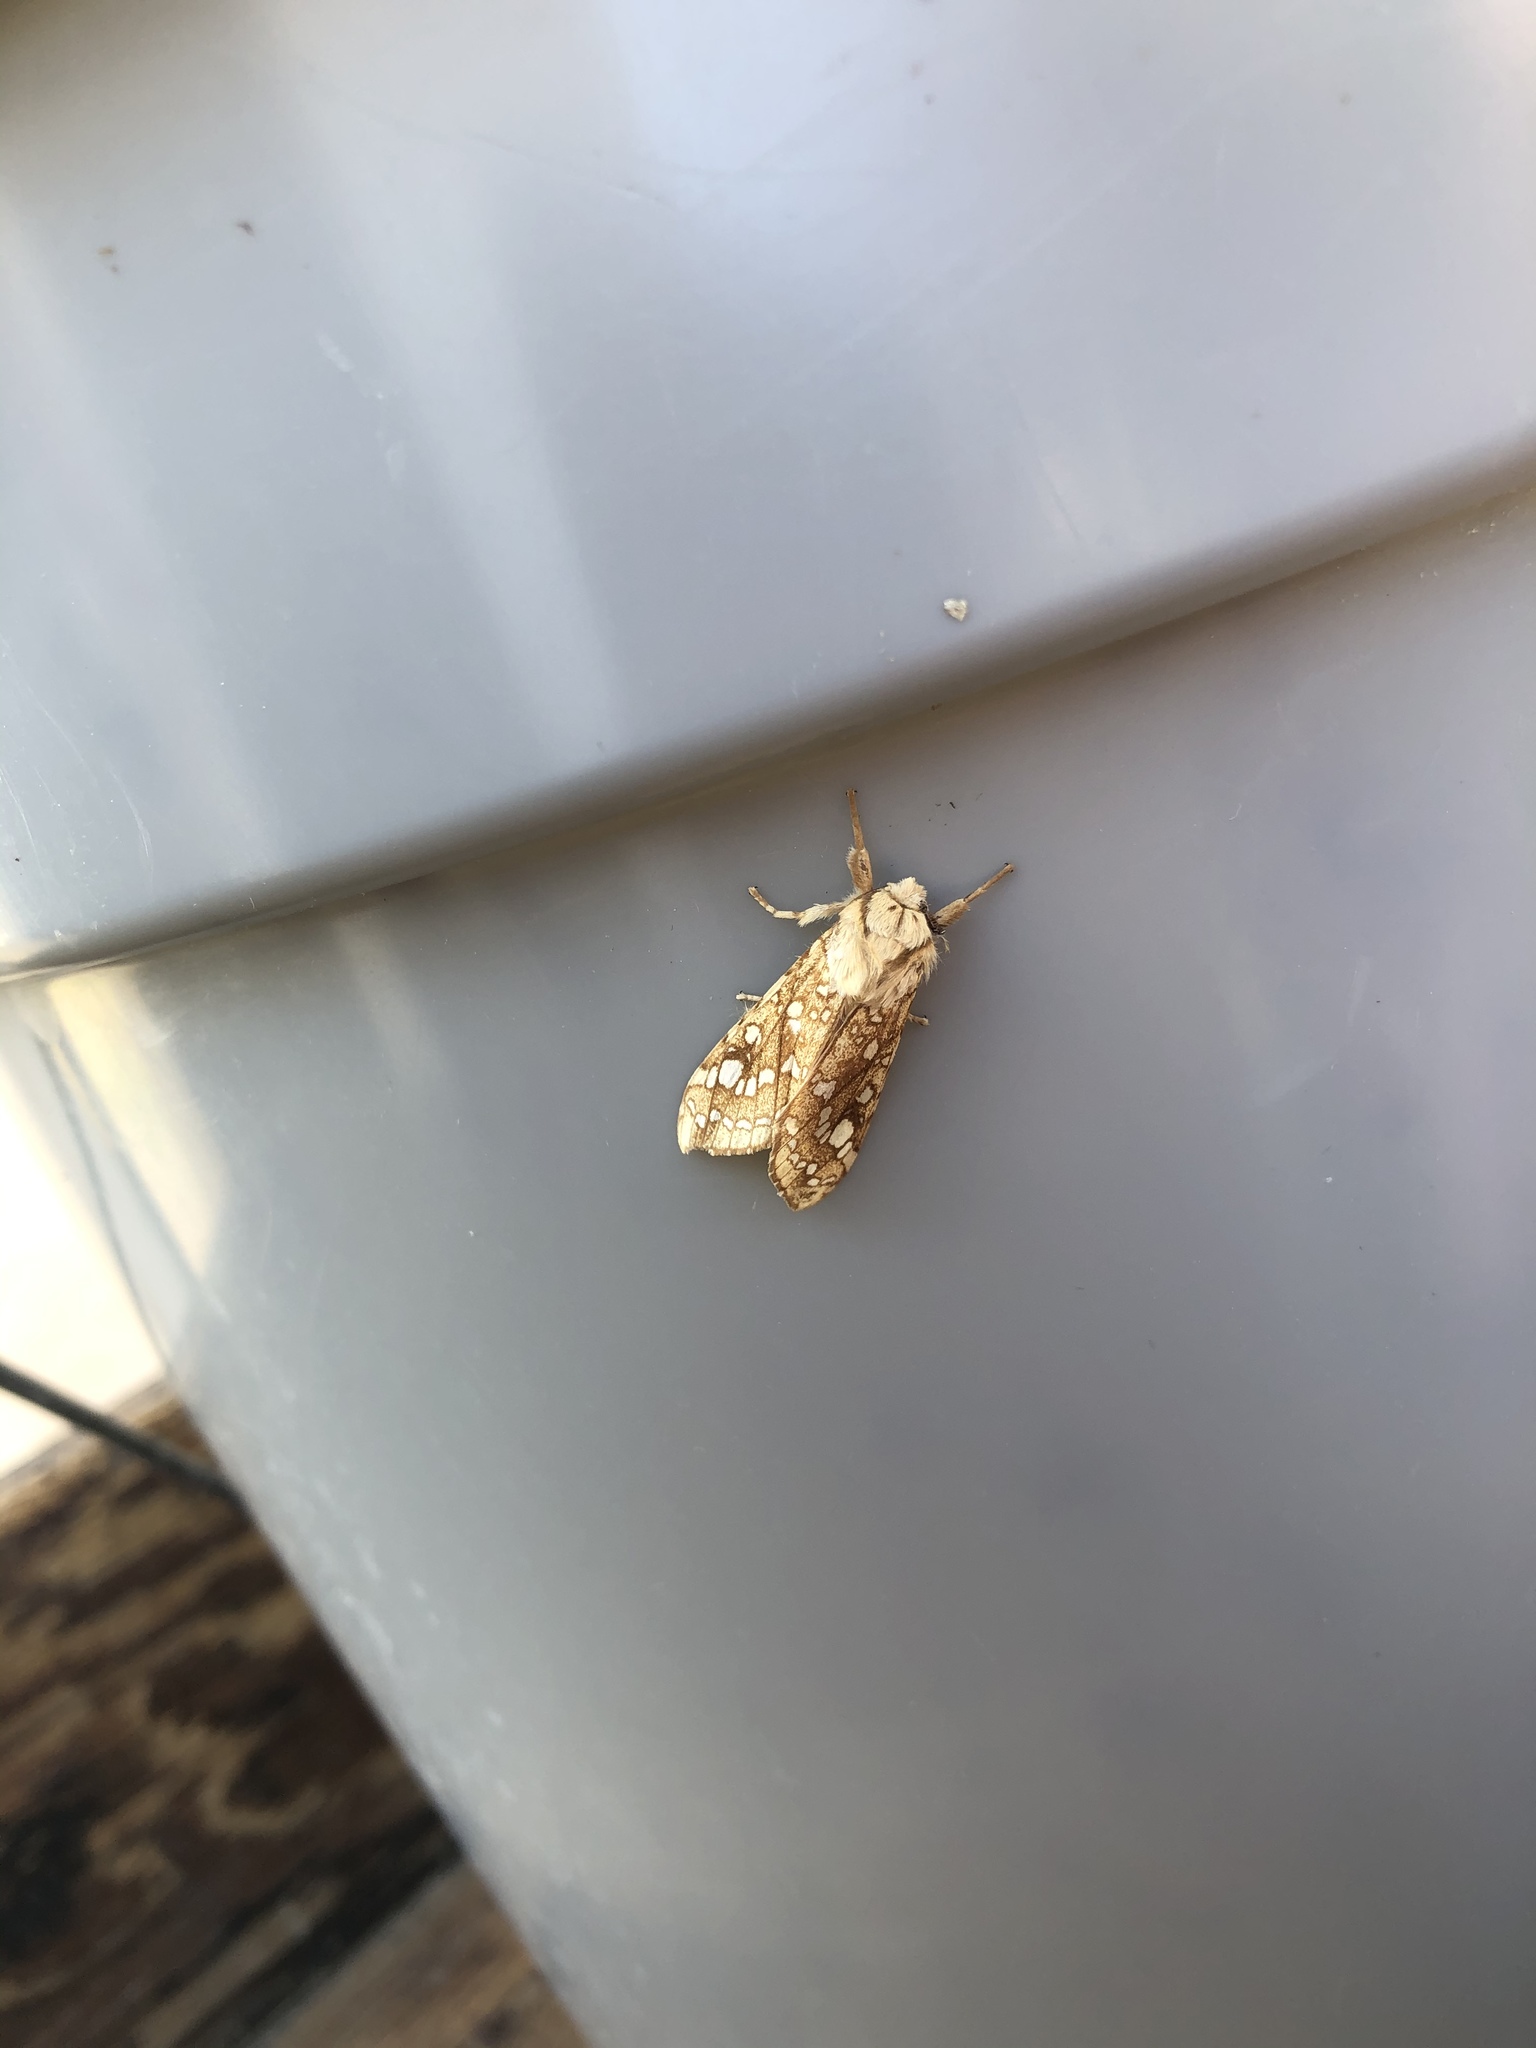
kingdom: Animalia
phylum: Arthropoda
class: Insecta
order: Lepidoptera
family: Erebidae
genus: Lophocampa
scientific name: Lophocampa caryae
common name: Hickory tussock moth
